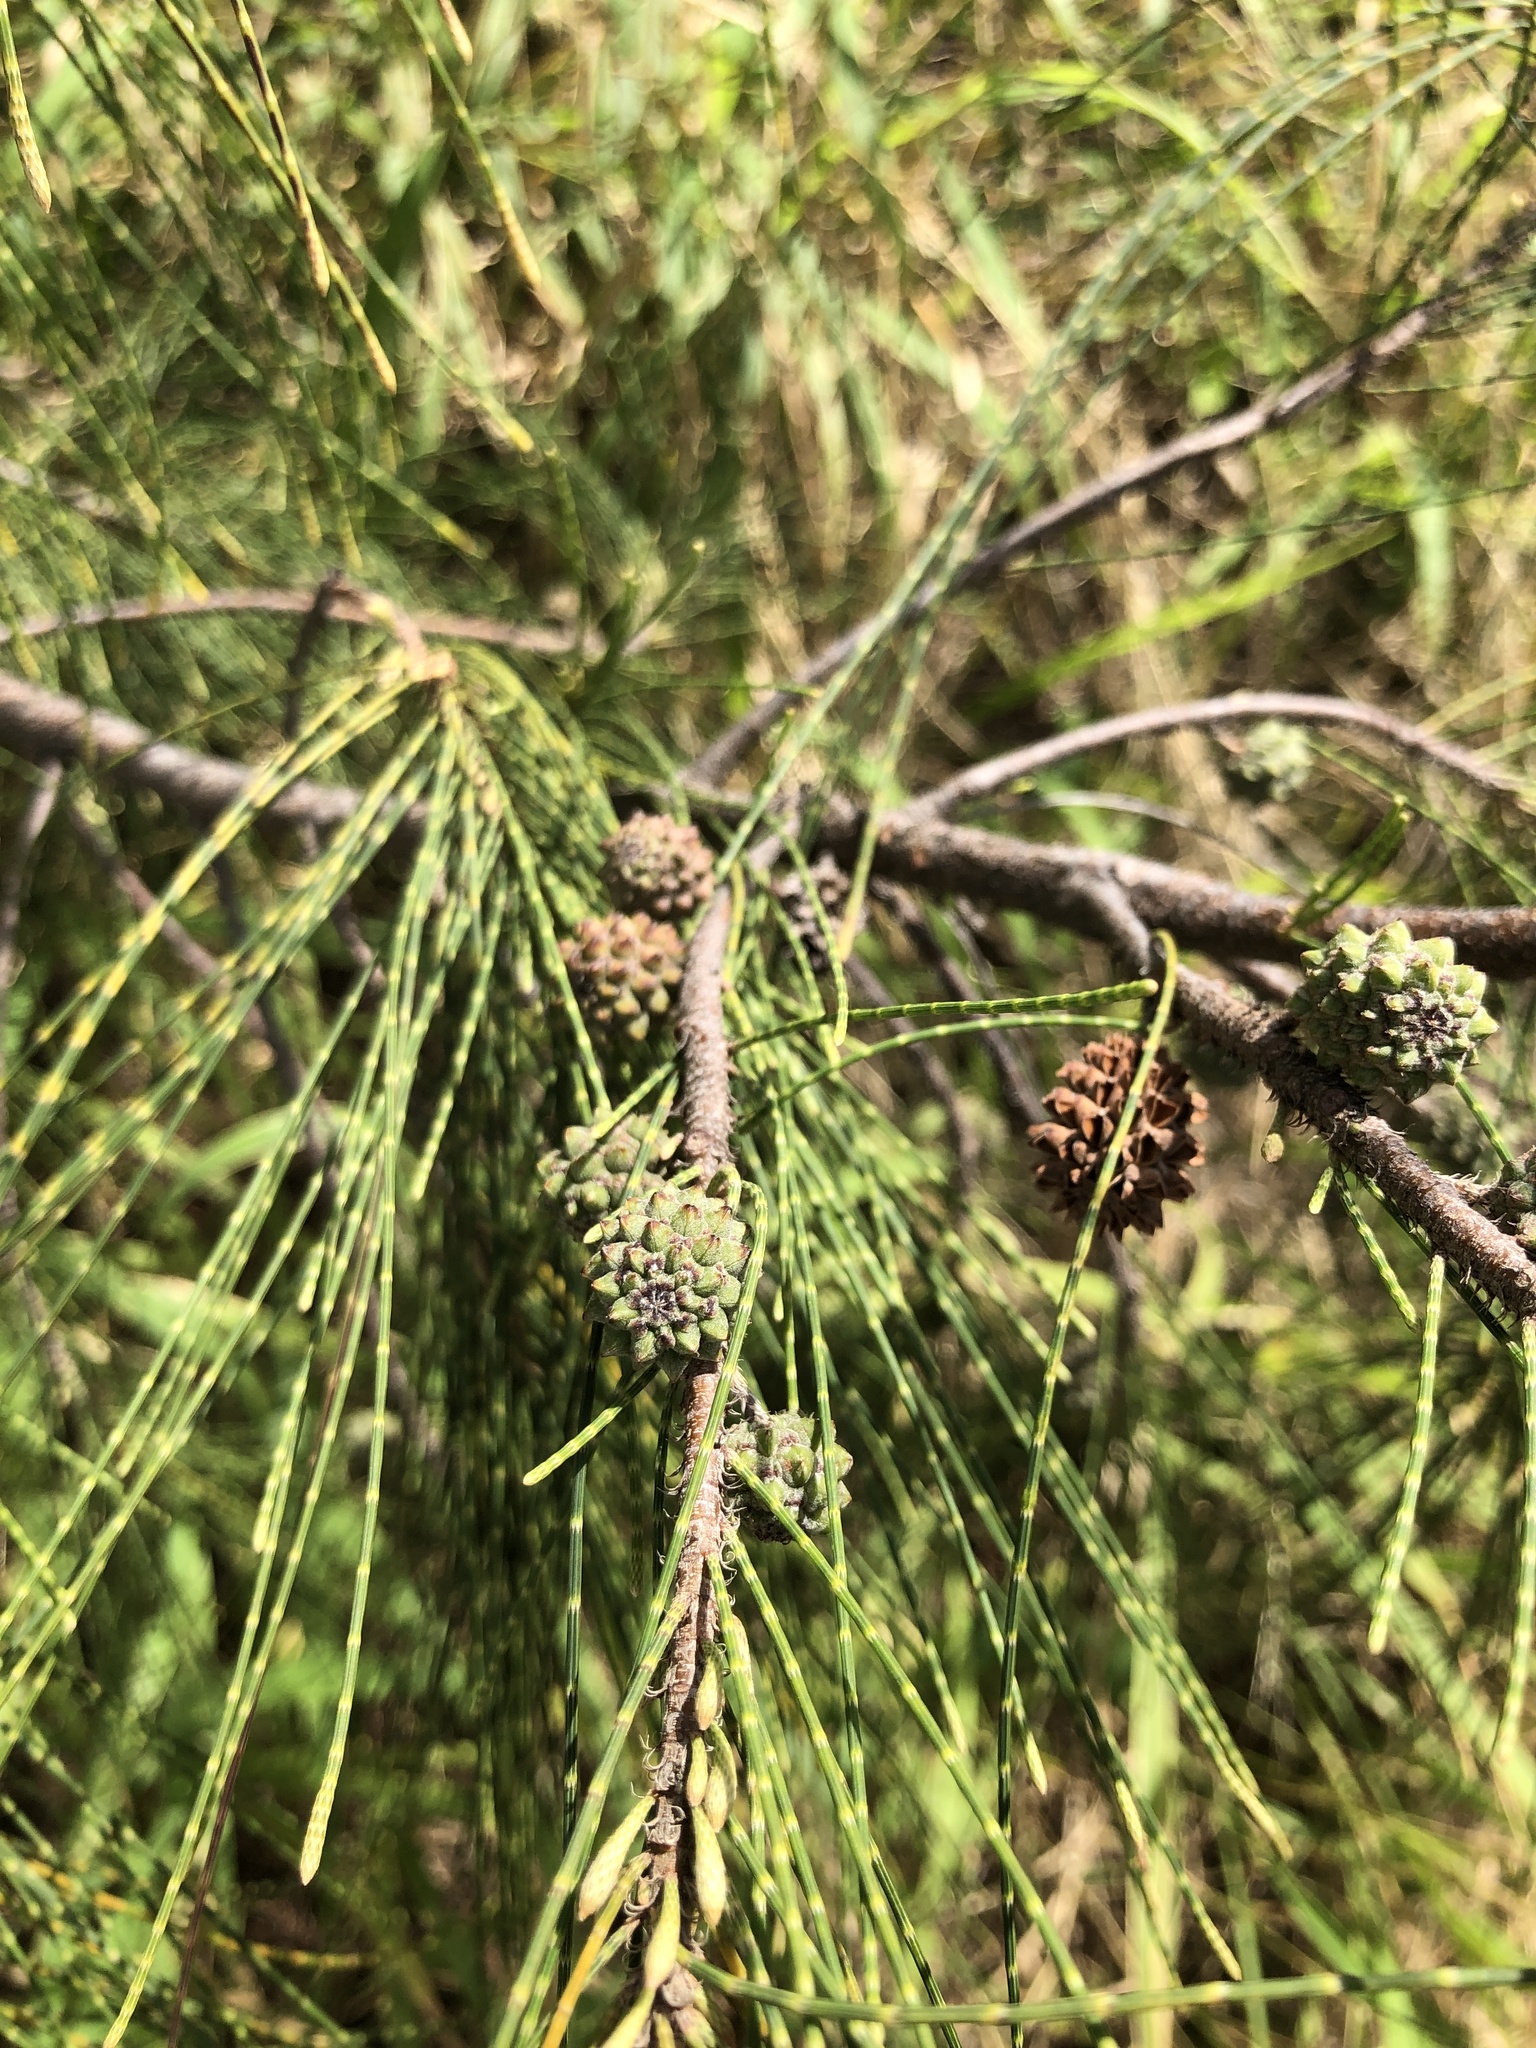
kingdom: Plantae
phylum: Tracheophyta
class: Magnoliopsida
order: Fagales
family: Casuarinaceae
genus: Casuarina
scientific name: Casuarina equisetifolia
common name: Beach sheoak
